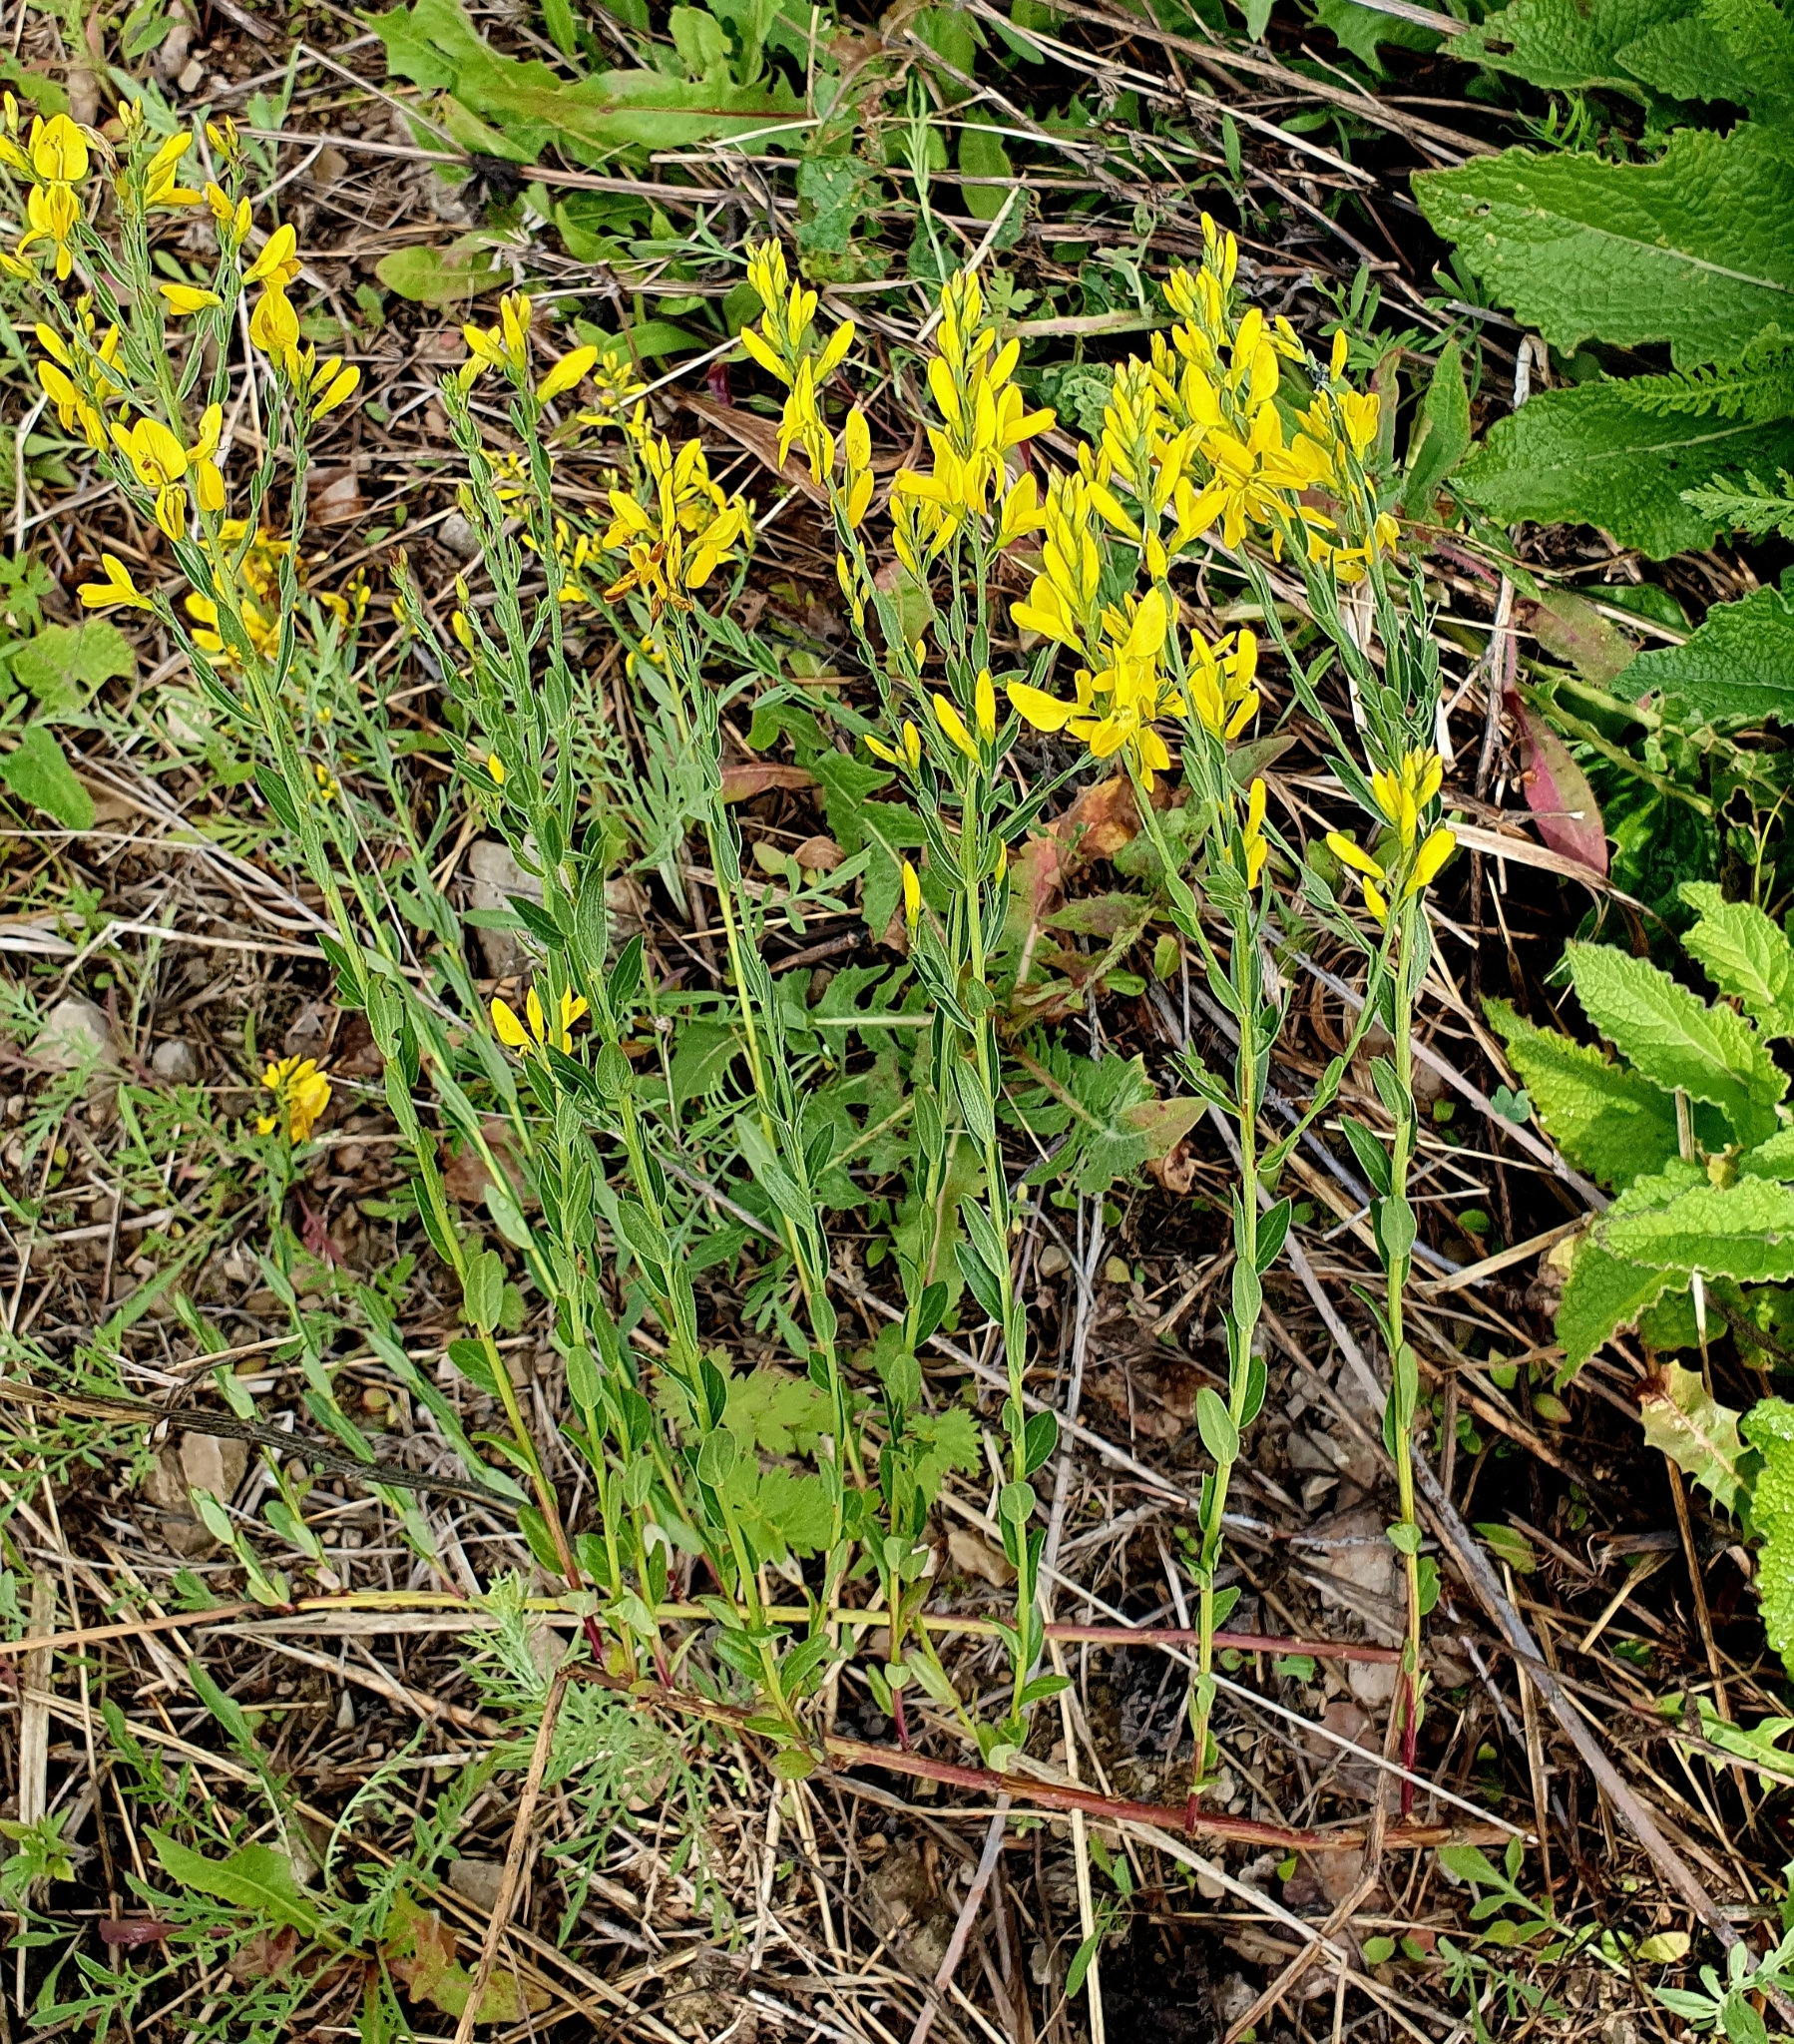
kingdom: Plantae
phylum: Tracheophyta
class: Magnoliopsida
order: Fabales
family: Fabaceae
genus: Genista
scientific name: Genista tinctoria
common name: Dyer's greenweed
